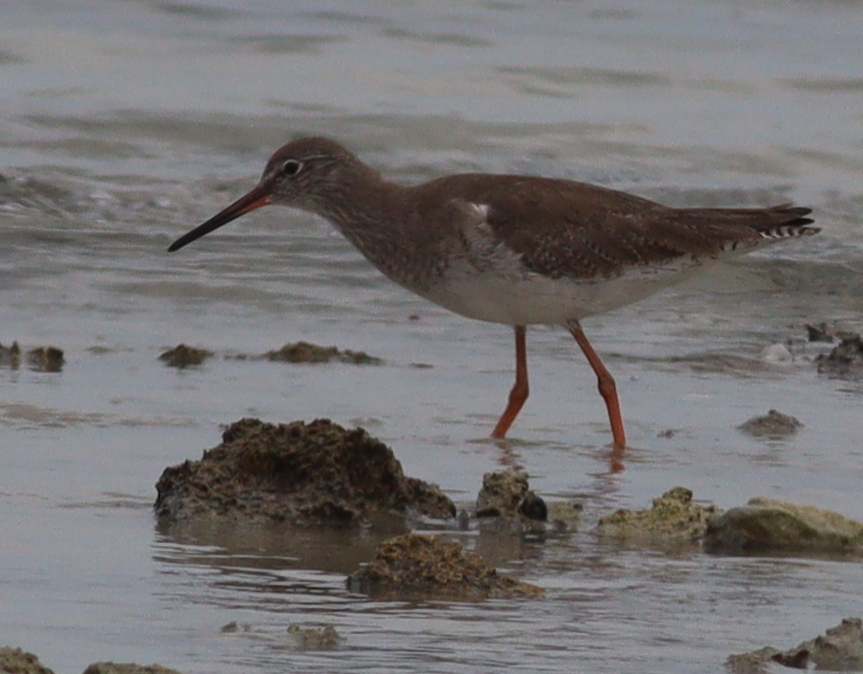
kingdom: Animalia
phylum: Chordata
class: Aves
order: Charadriiformes
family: Scolopacidae
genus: Tringa
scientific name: Tringa totanus
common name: Common redshank
